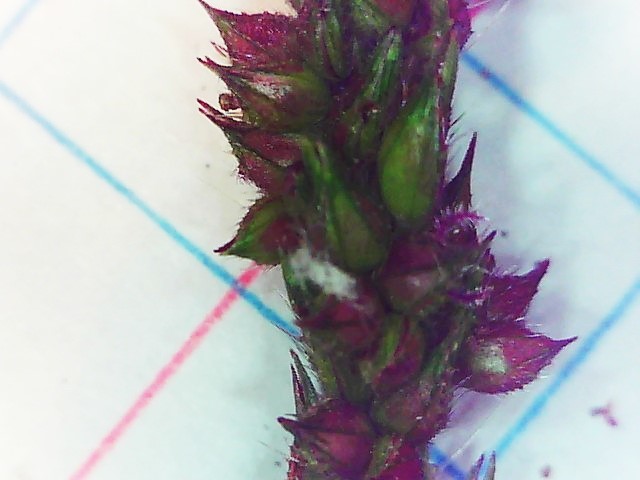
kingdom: Plantae
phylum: Tracheophyta
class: Liliopsida
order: Poales
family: Poaceae
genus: Echinochloa
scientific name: Echinochloa crus-galli
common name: Cockspur
